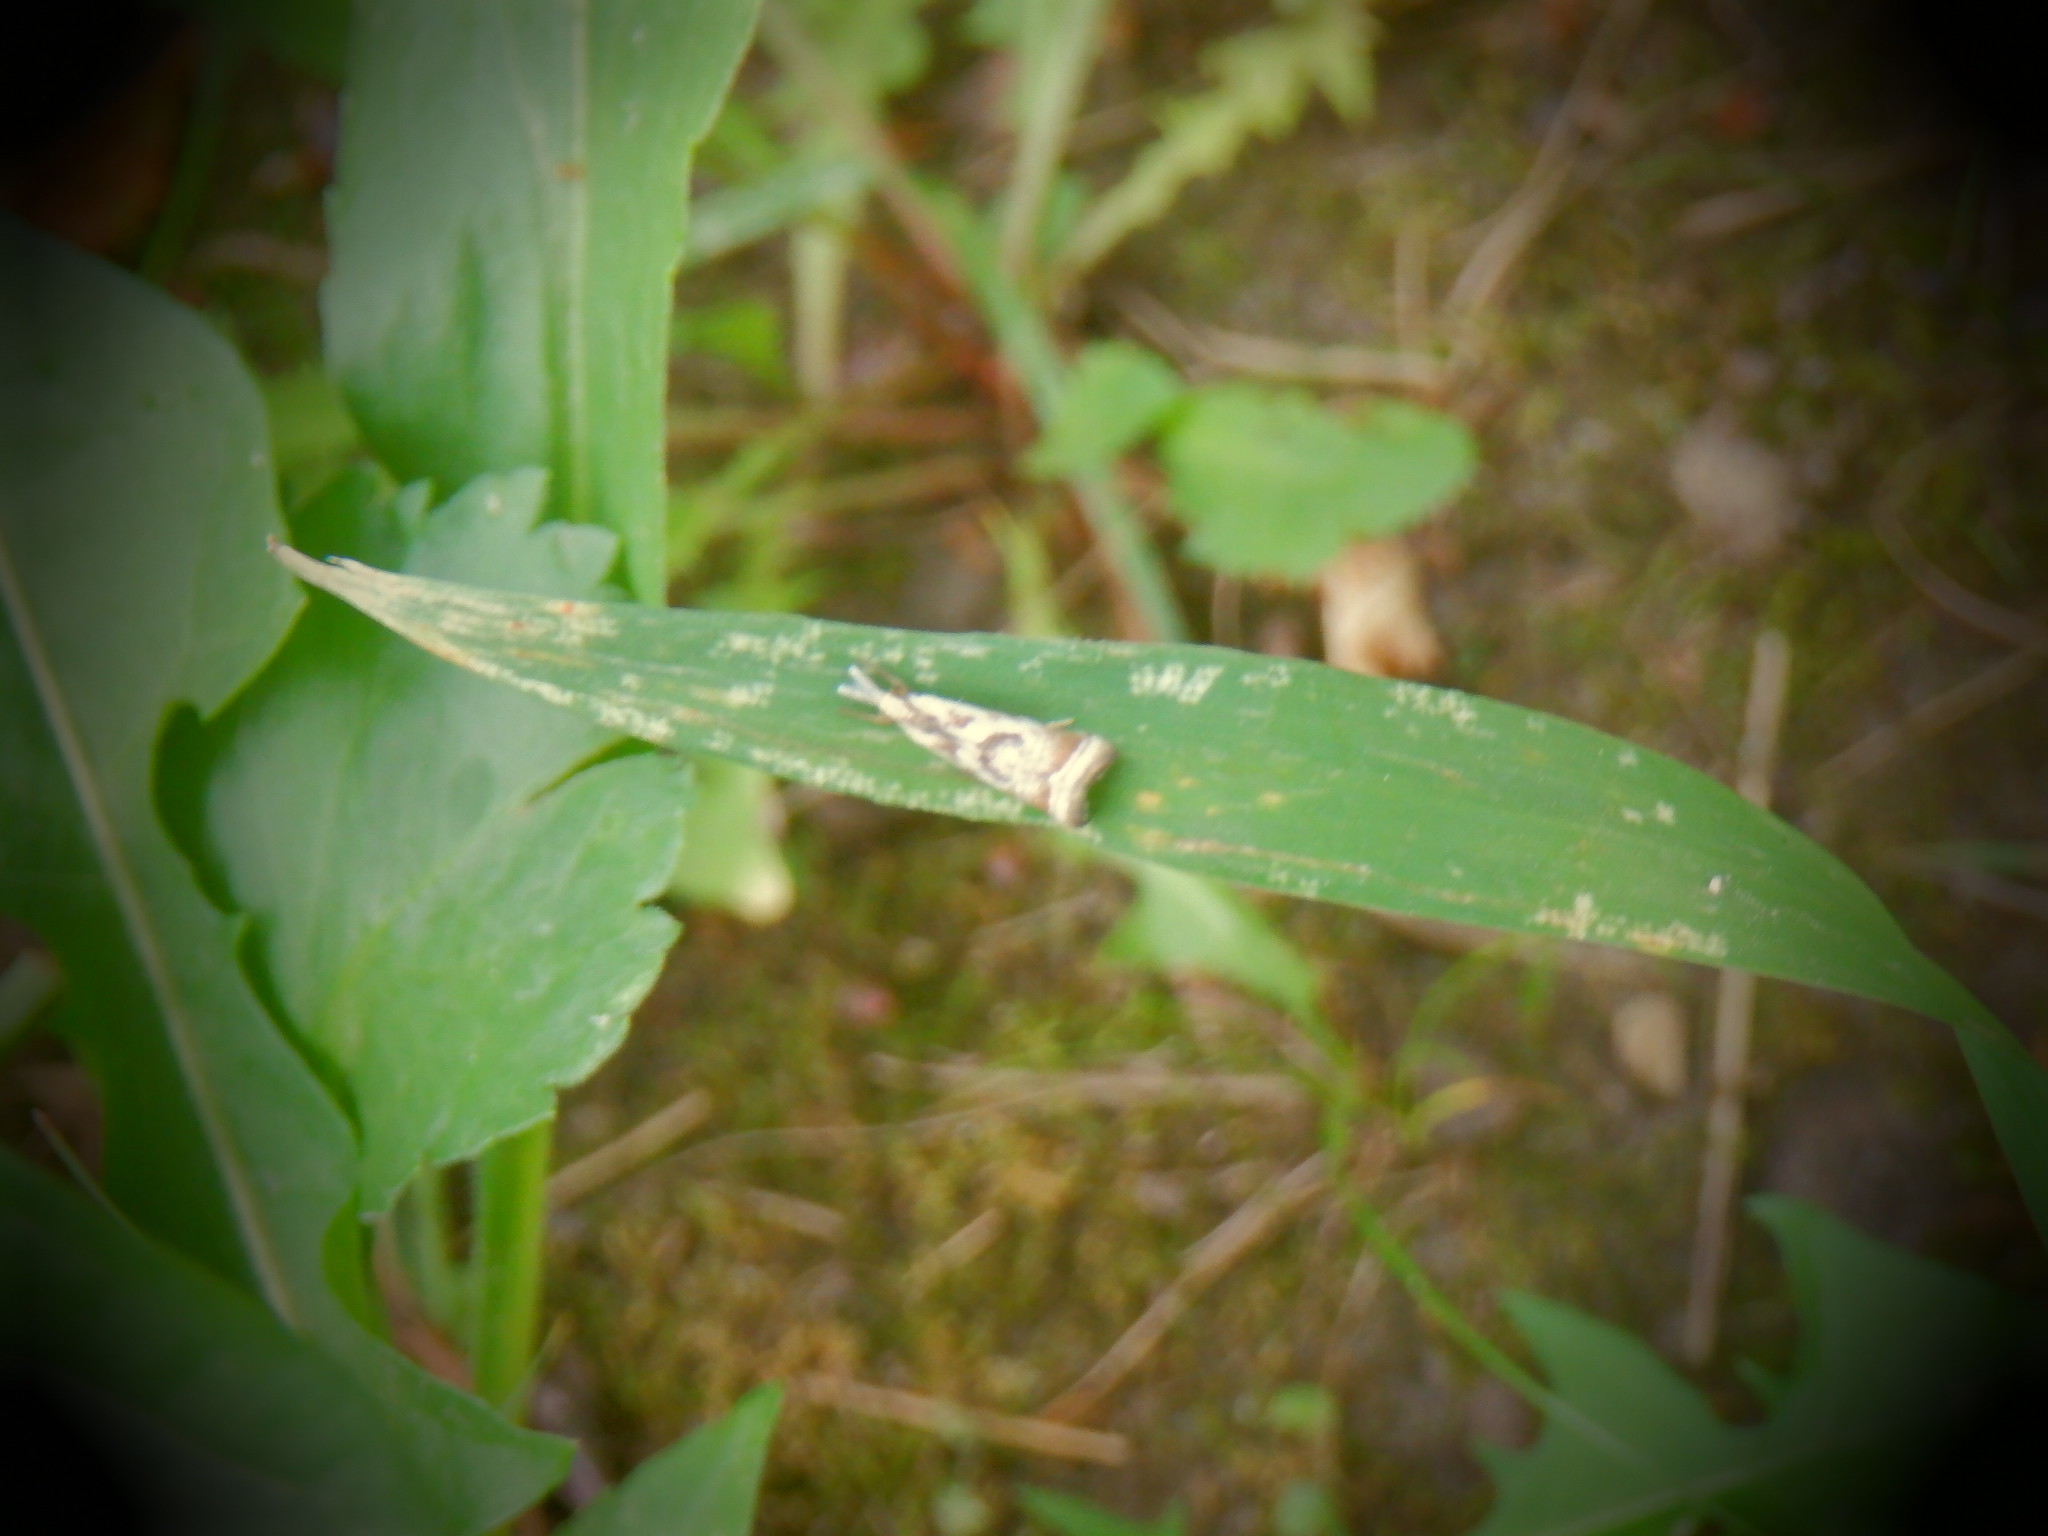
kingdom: Animalia
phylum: Arthropoda
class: Insecta
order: Lepidoptera
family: Crambidae
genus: Microcrambus
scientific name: Microcrambus elegans
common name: Elegant grass-veneer
